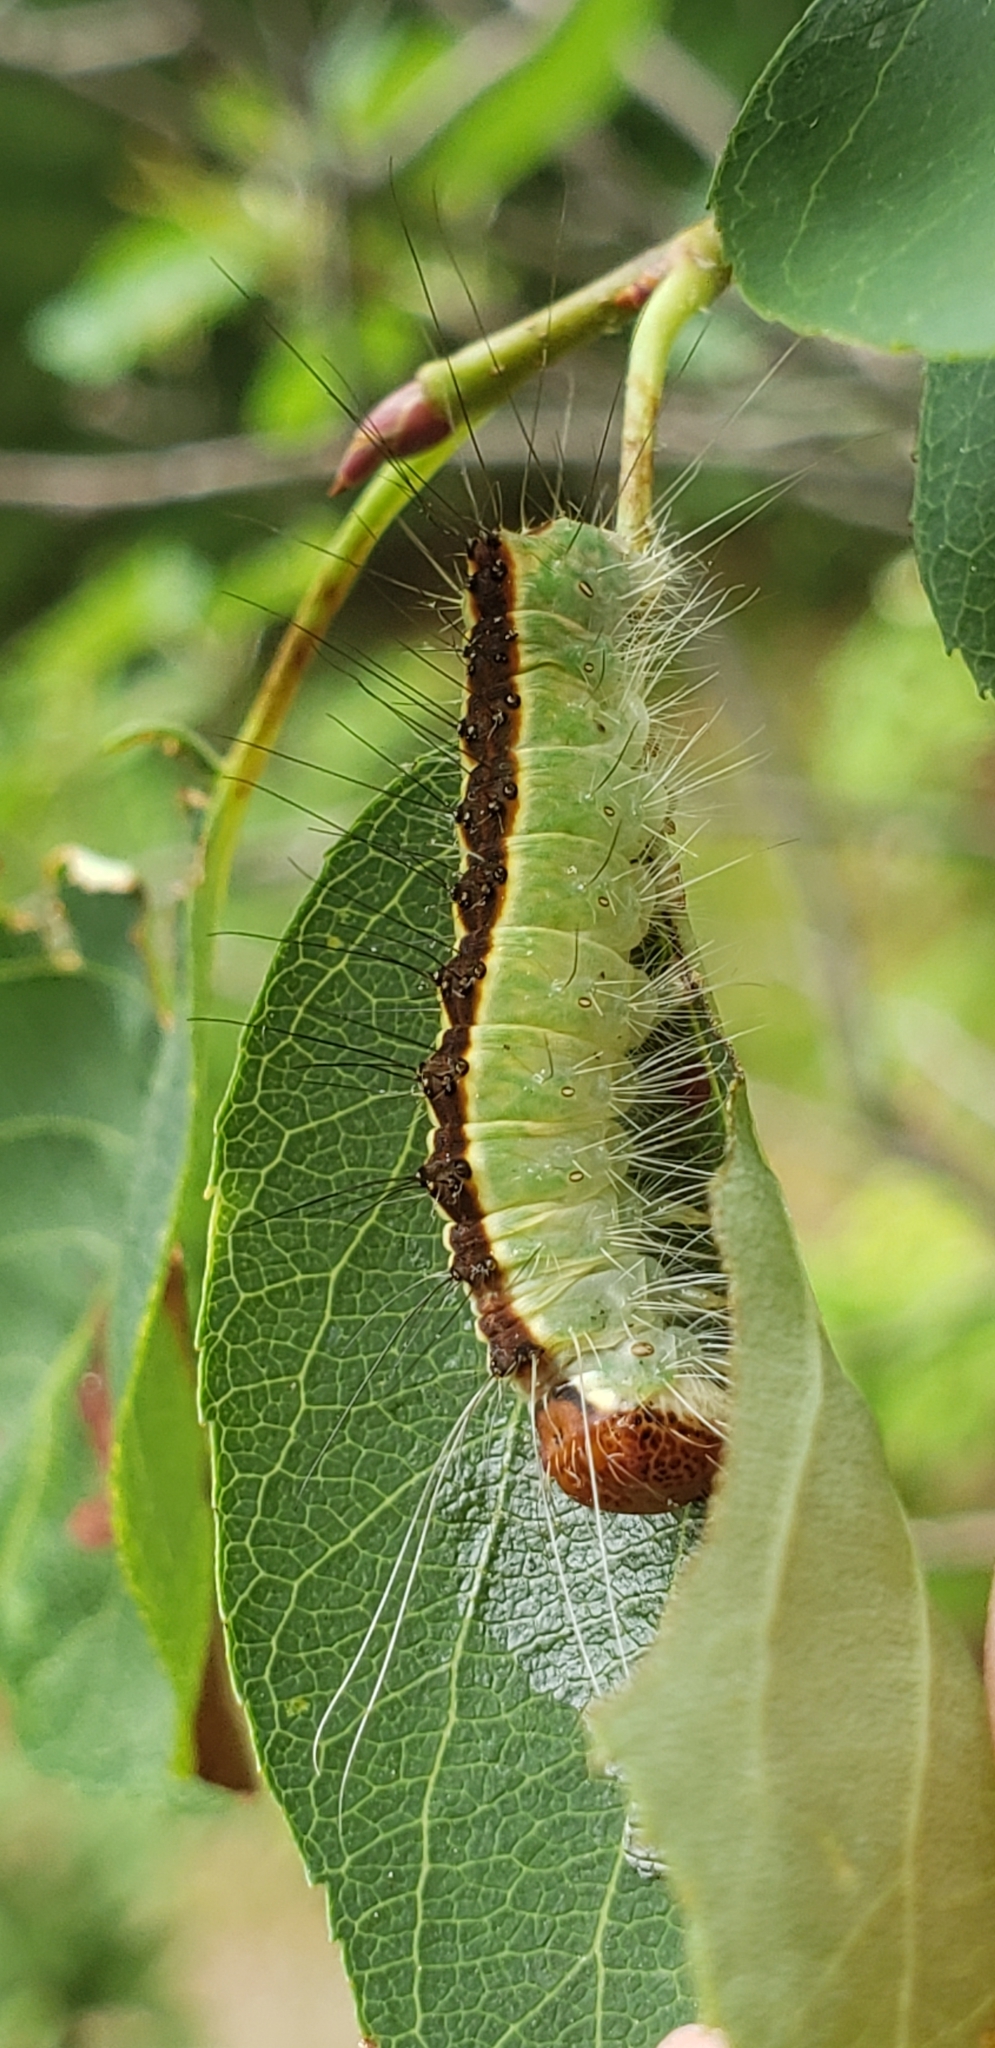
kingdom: Animalia
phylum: Arthropoda
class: Insecta
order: Lepidoptera
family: Noctuidae
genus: Acronicta
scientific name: Acronicta superans
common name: Splendid dagger
